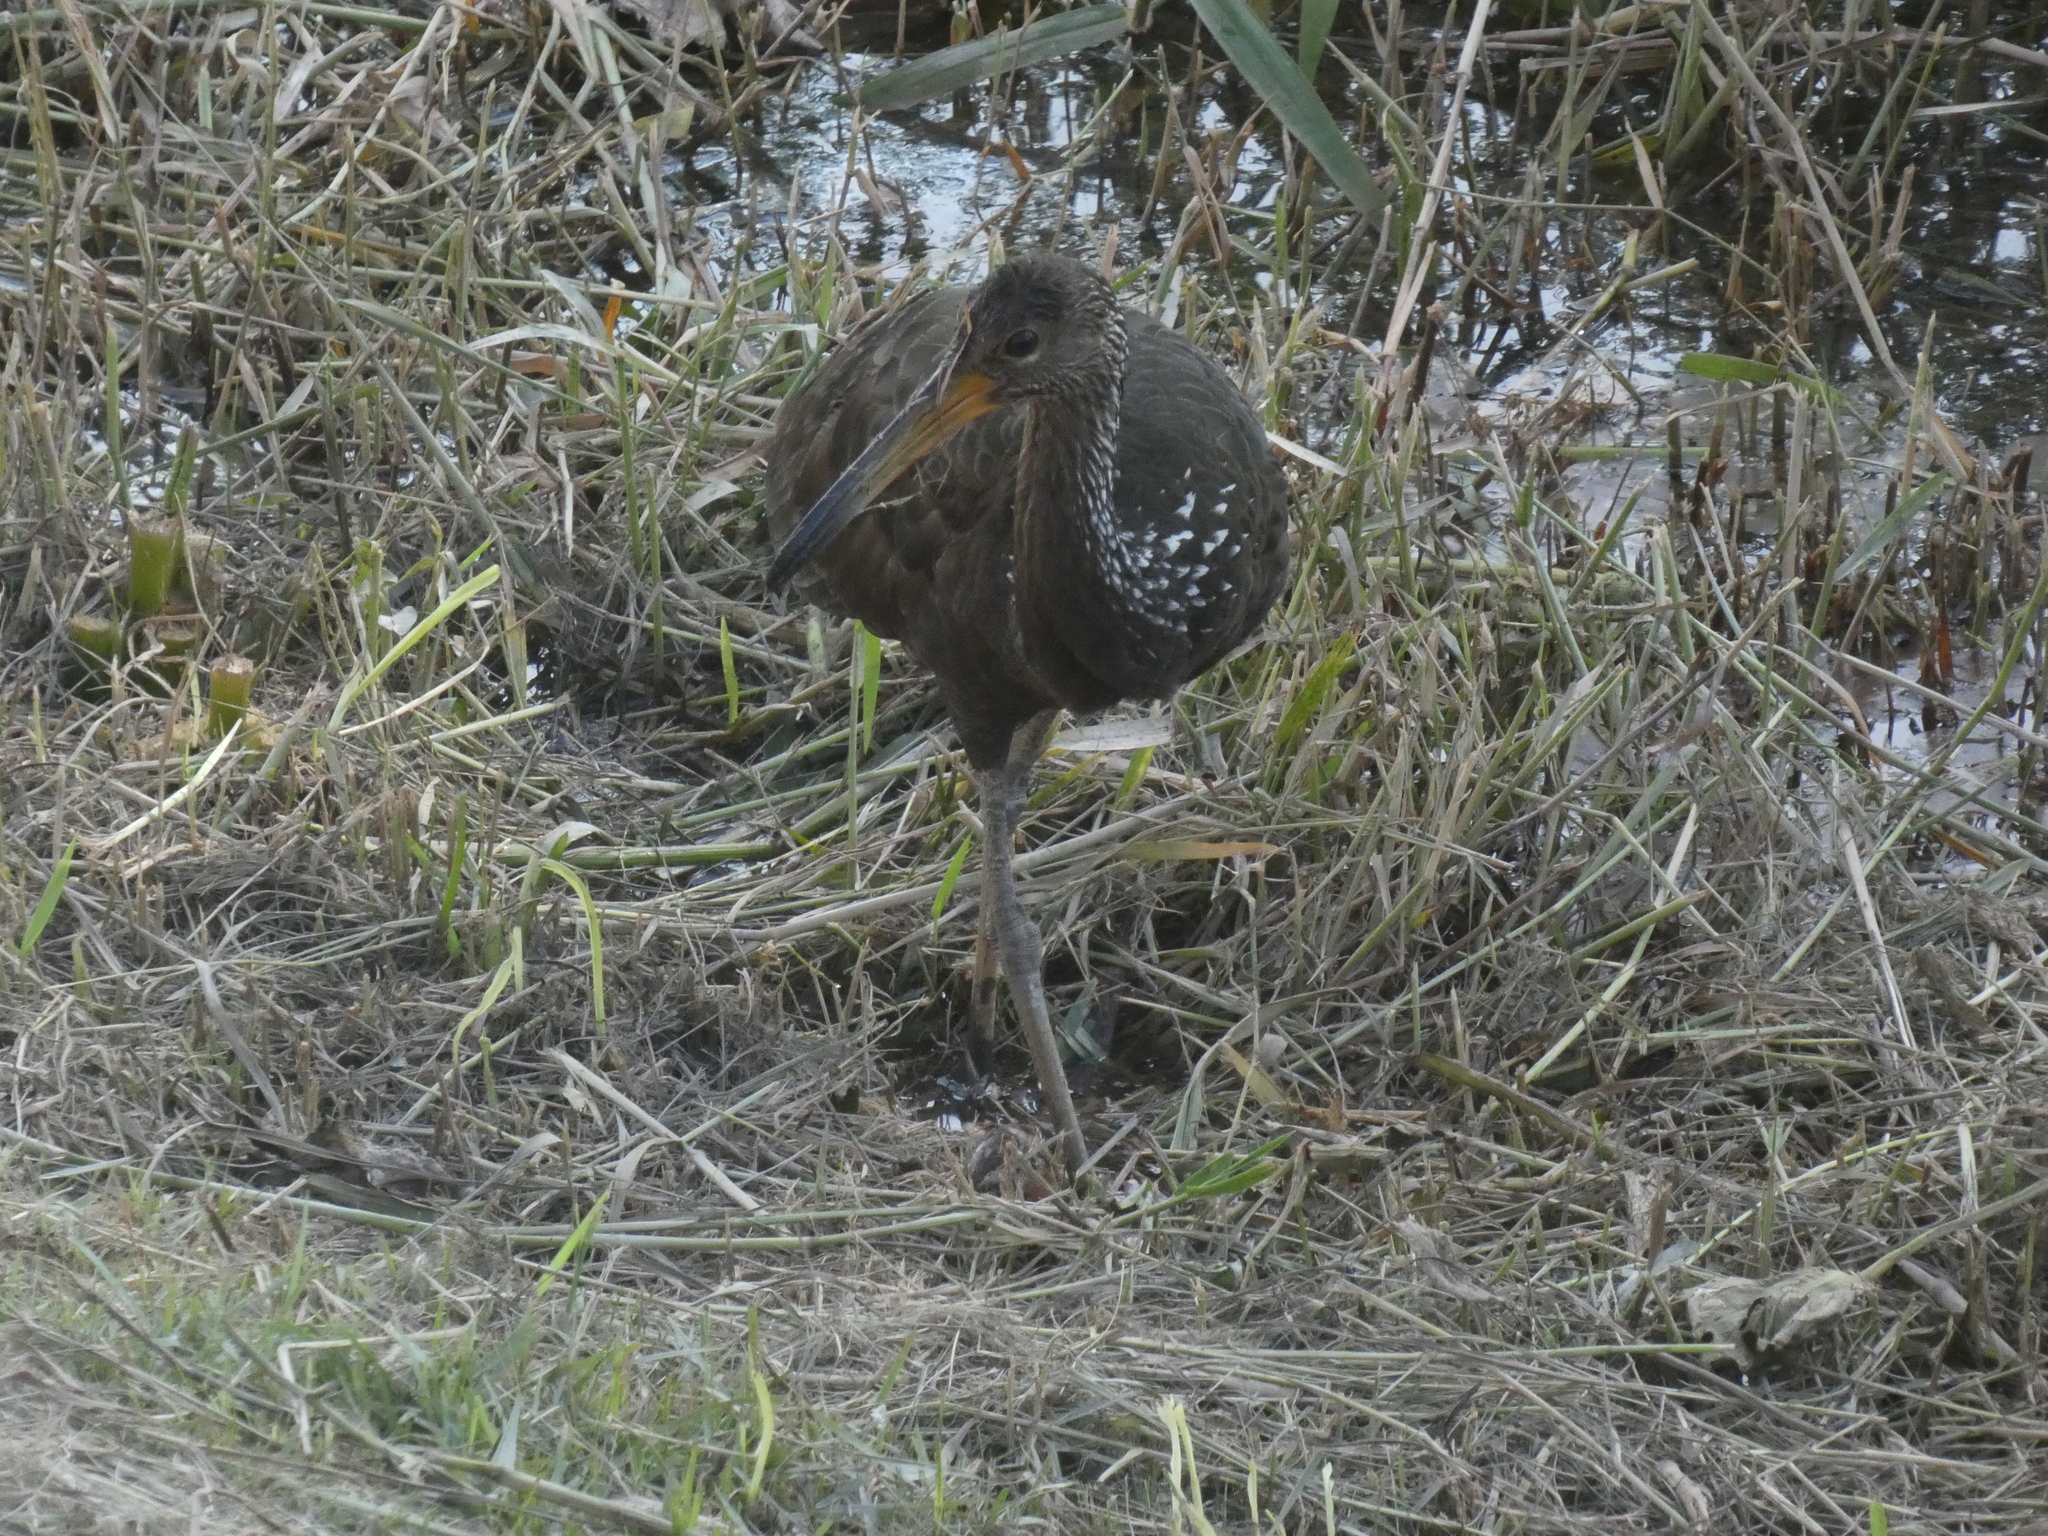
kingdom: Animalia
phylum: Chordata
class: Aves
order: Gruiformes
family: Aramidae
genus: Aramus
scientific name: Aramus guarauna
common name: Limpkin
